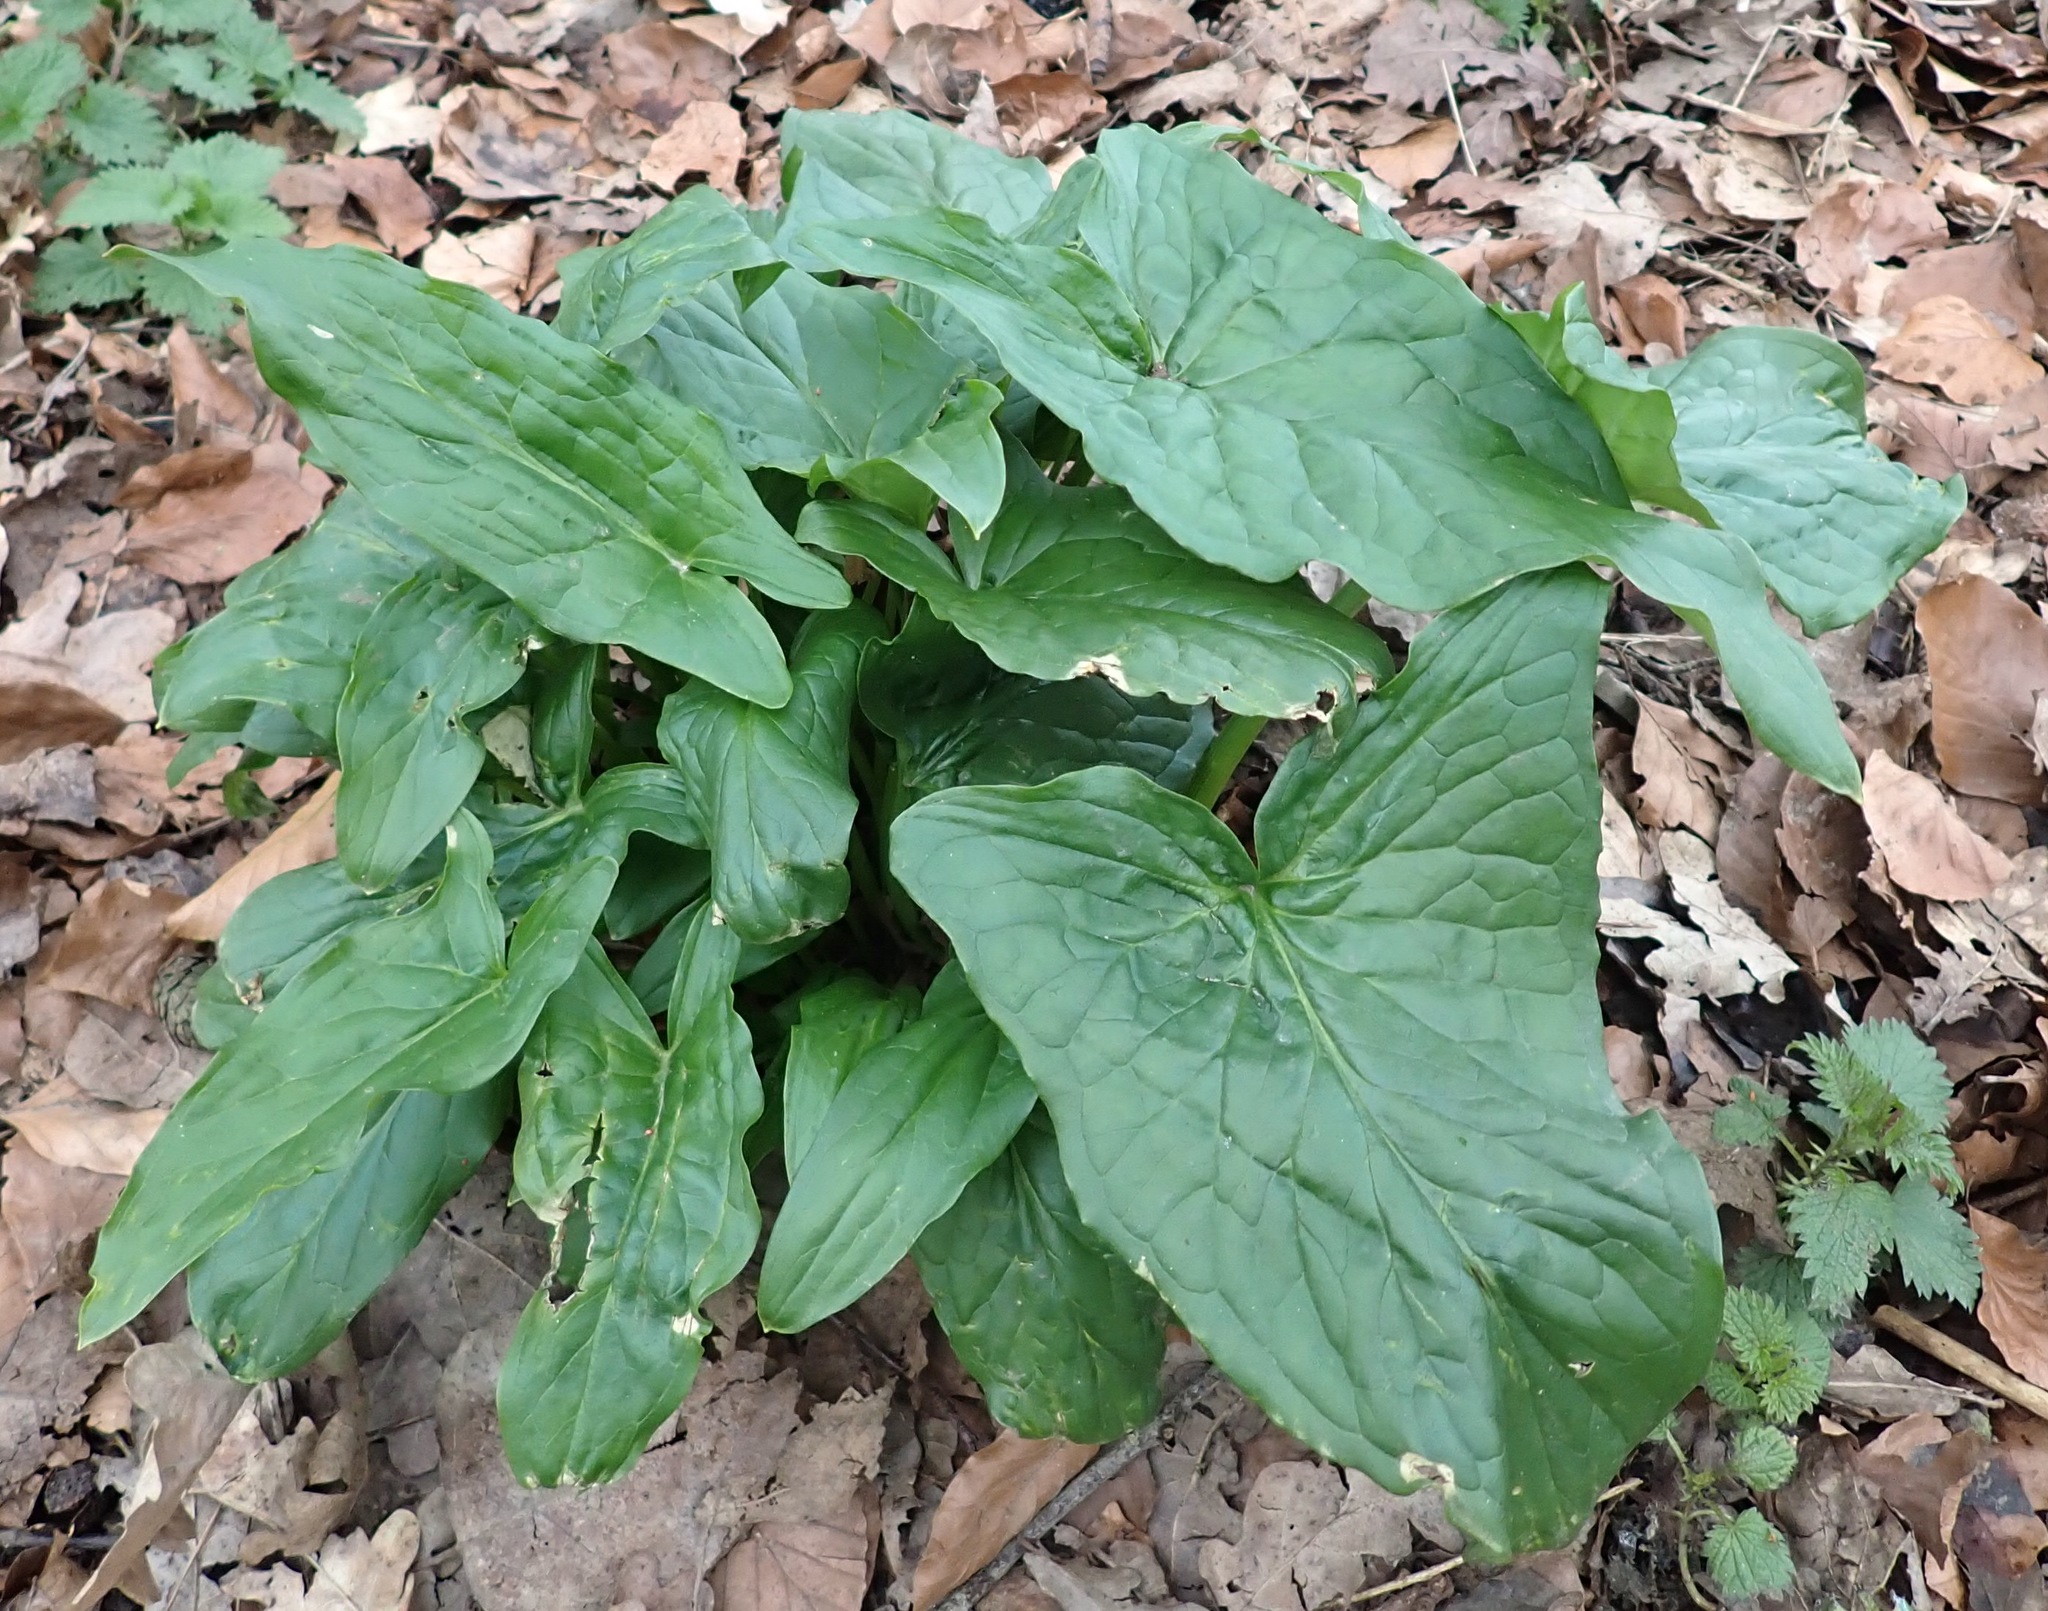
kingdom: Plantae
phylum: Tracheophyta
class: Liliopsida
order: Alismatales
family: Araceae
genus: Arum
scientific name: Arum maculatum
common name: Lords-and-ladies
